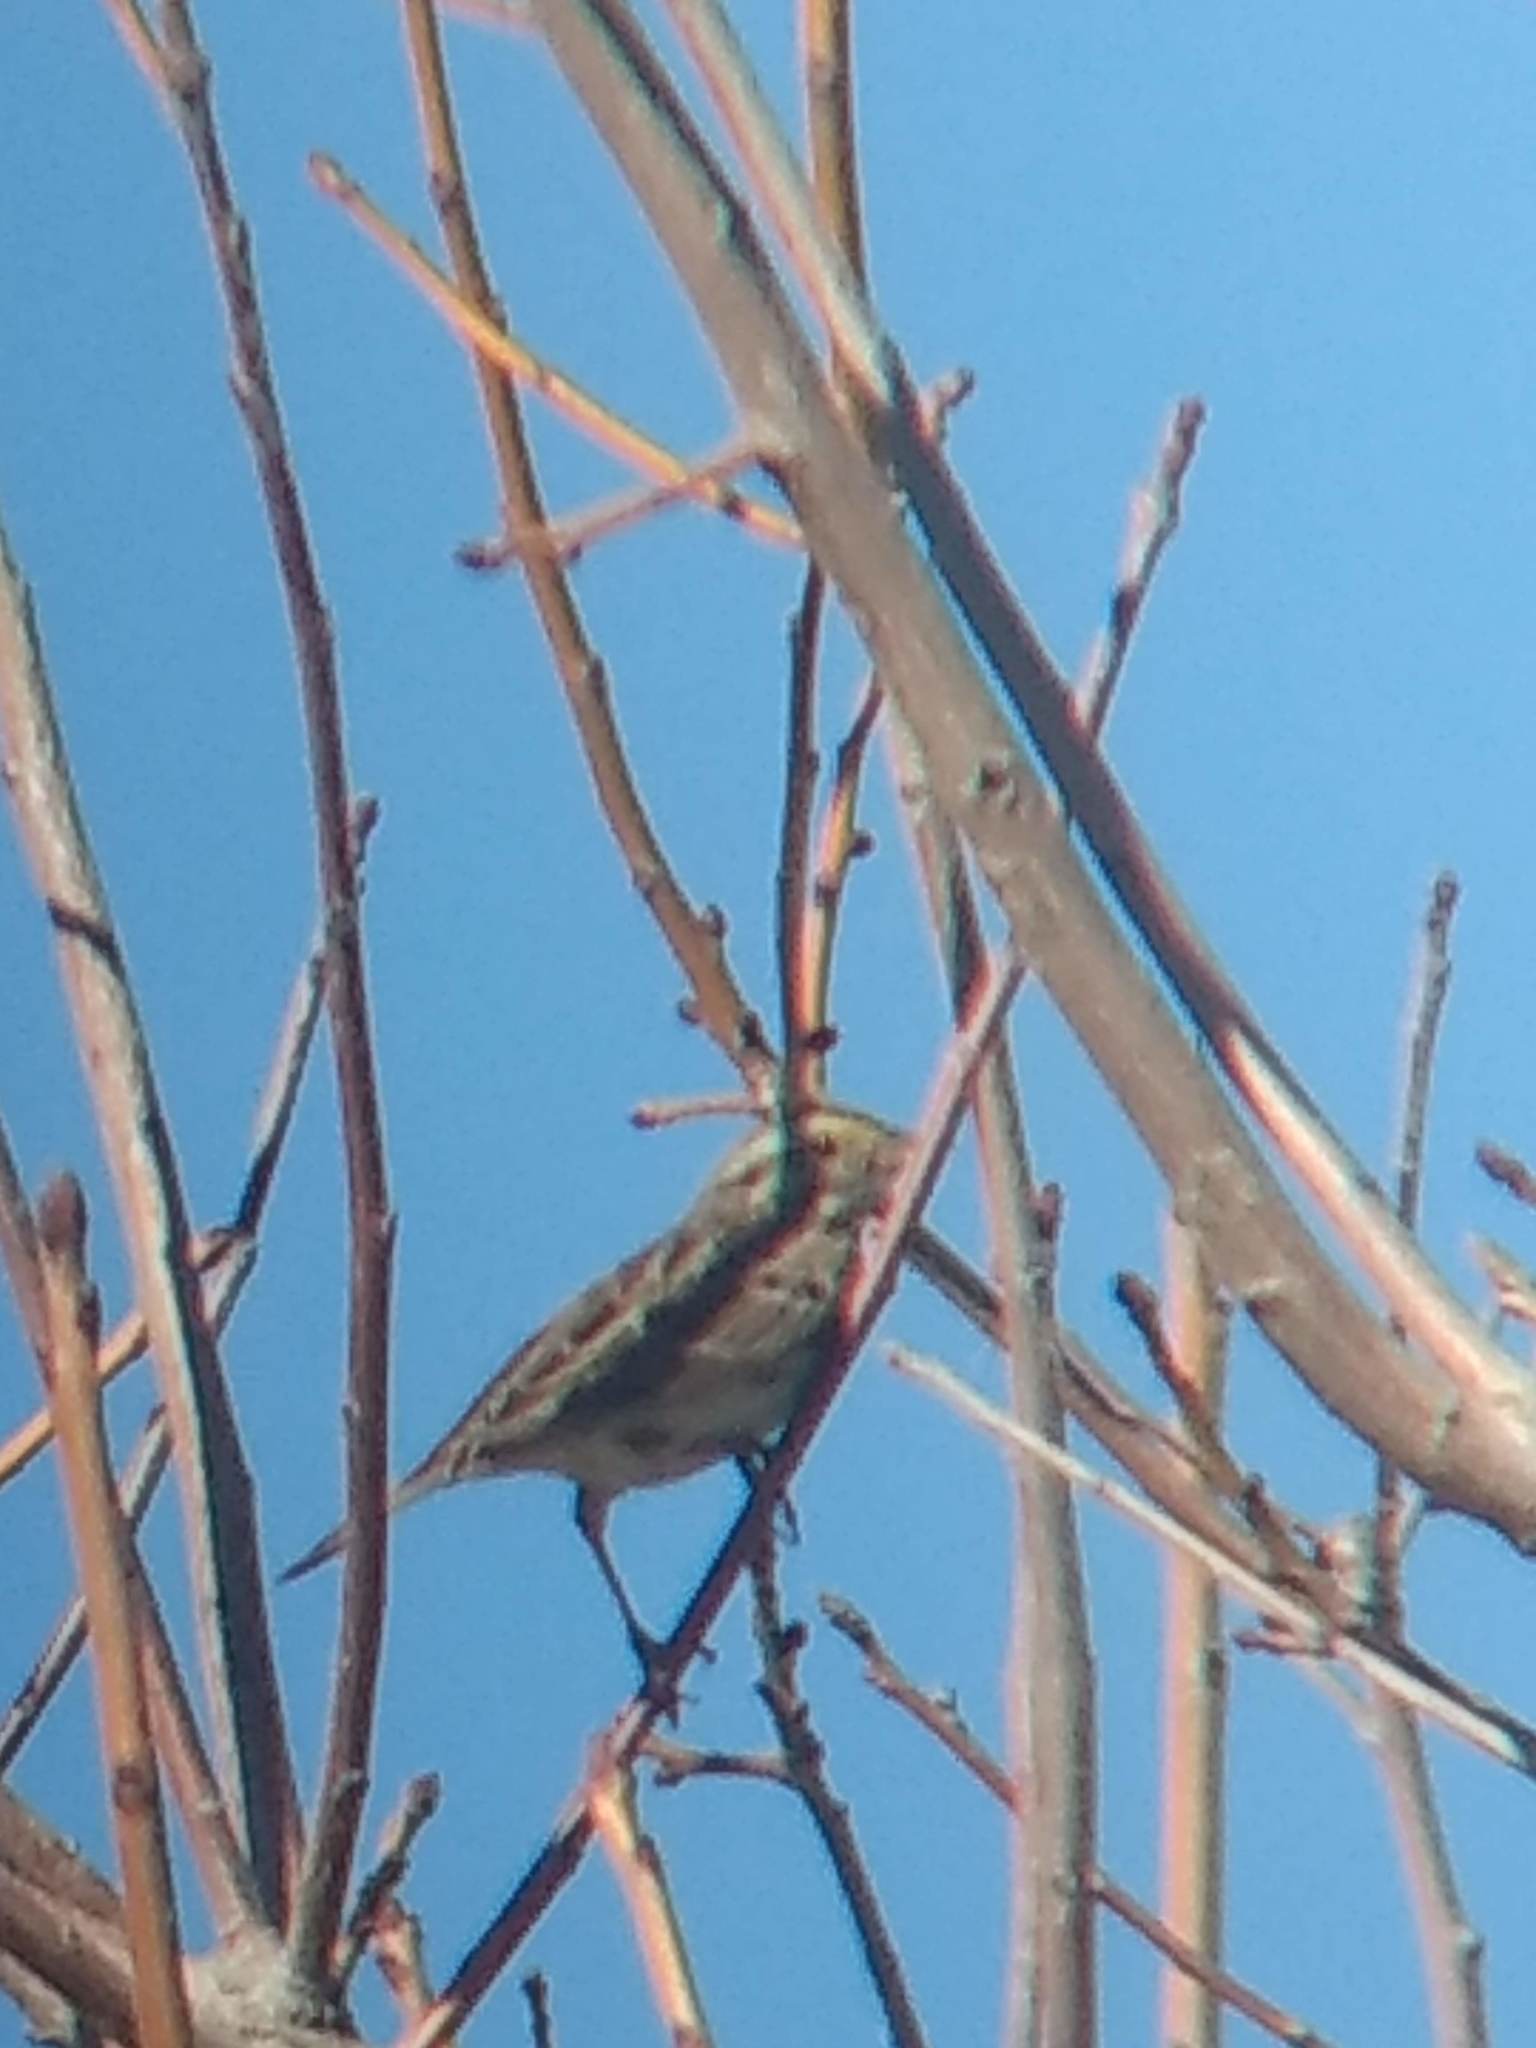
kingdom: Animalia
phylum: Chordata
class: Aves
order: Passeriformes
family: Passerellidae
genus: Passerculus
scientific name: Passerculus sandwichensis
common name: Savannah sparrow
